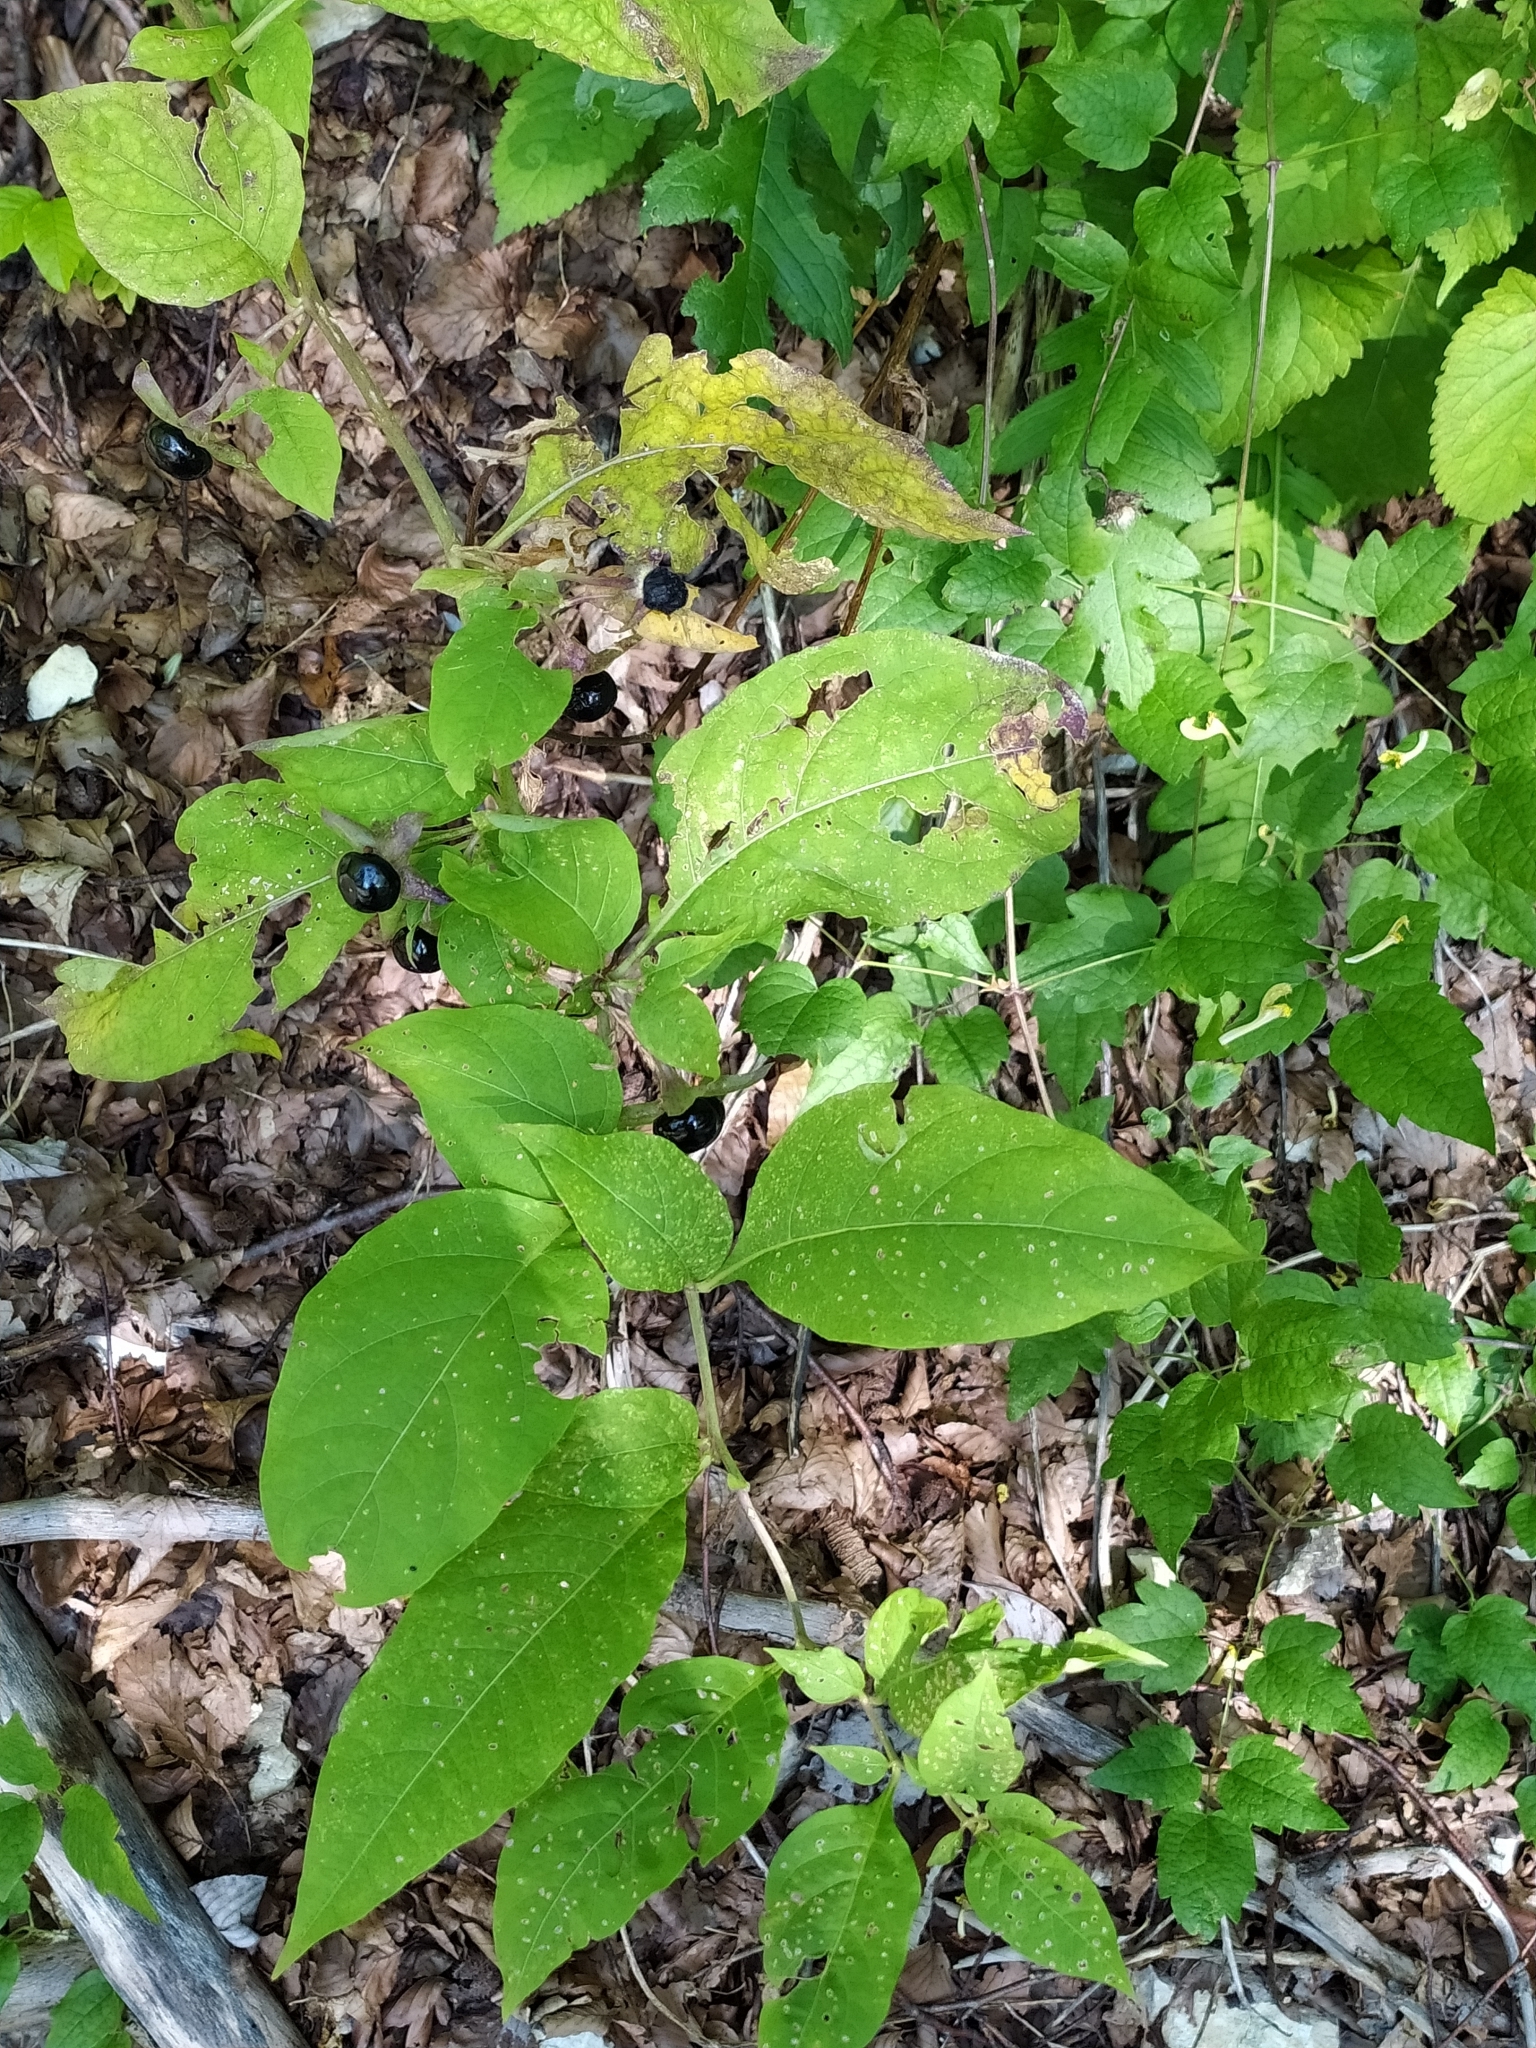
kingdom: Plantae
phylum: Tracheophyta
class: Magnoliopsida
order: Solanales
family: Solanaceae
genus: Atropa
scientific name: Atropa belladonna
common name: Deadly nightshade
